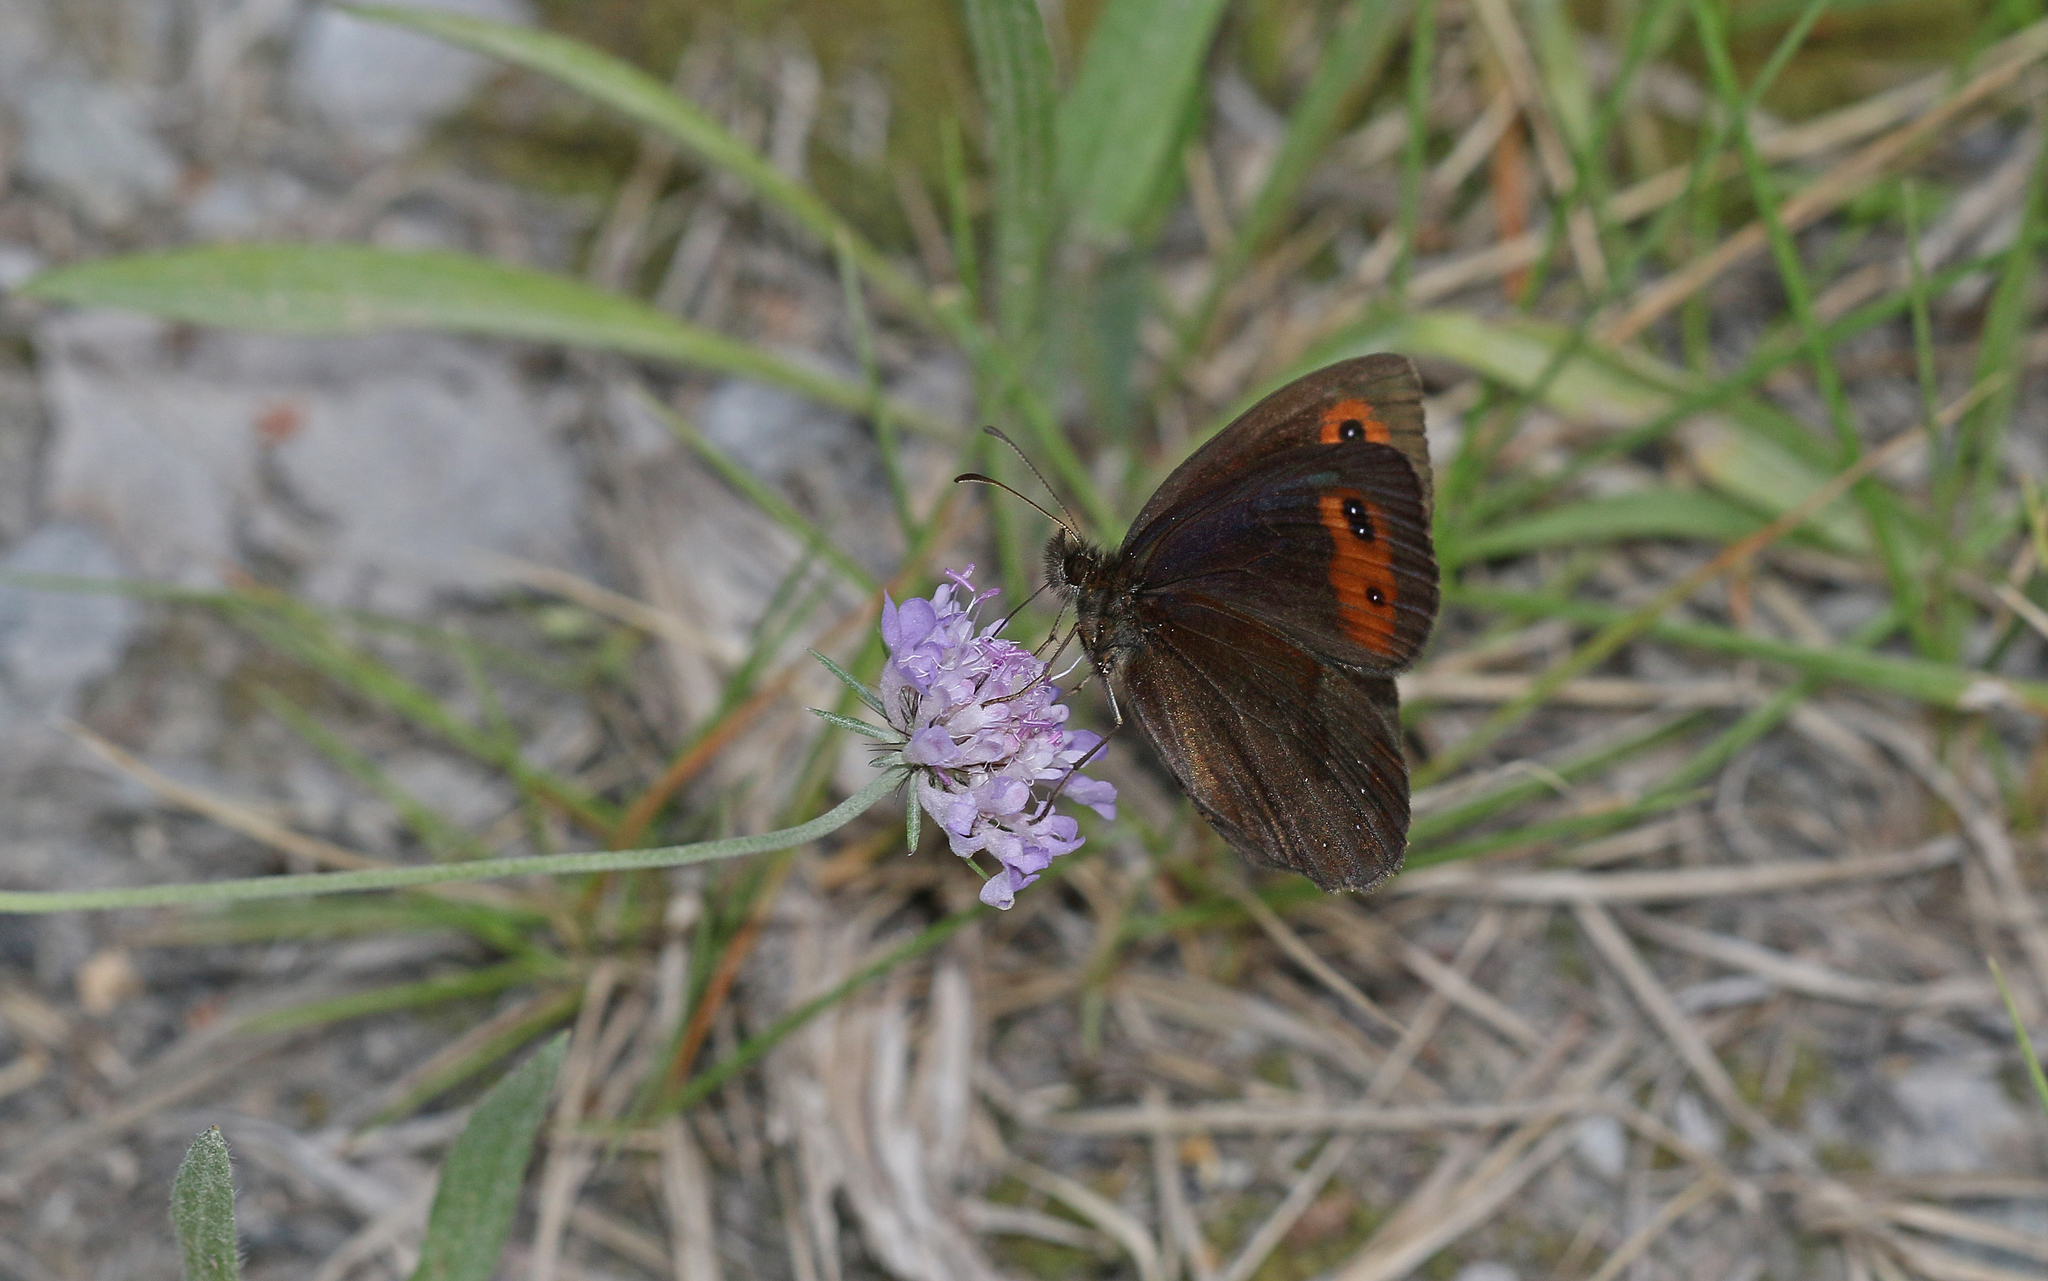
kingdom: Animalia
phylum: Arthropoda
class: Insecta
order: Lepidoptera
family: Nymphalidae
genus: Erebia
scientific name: Erebia aethiops
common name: Scotch argus
